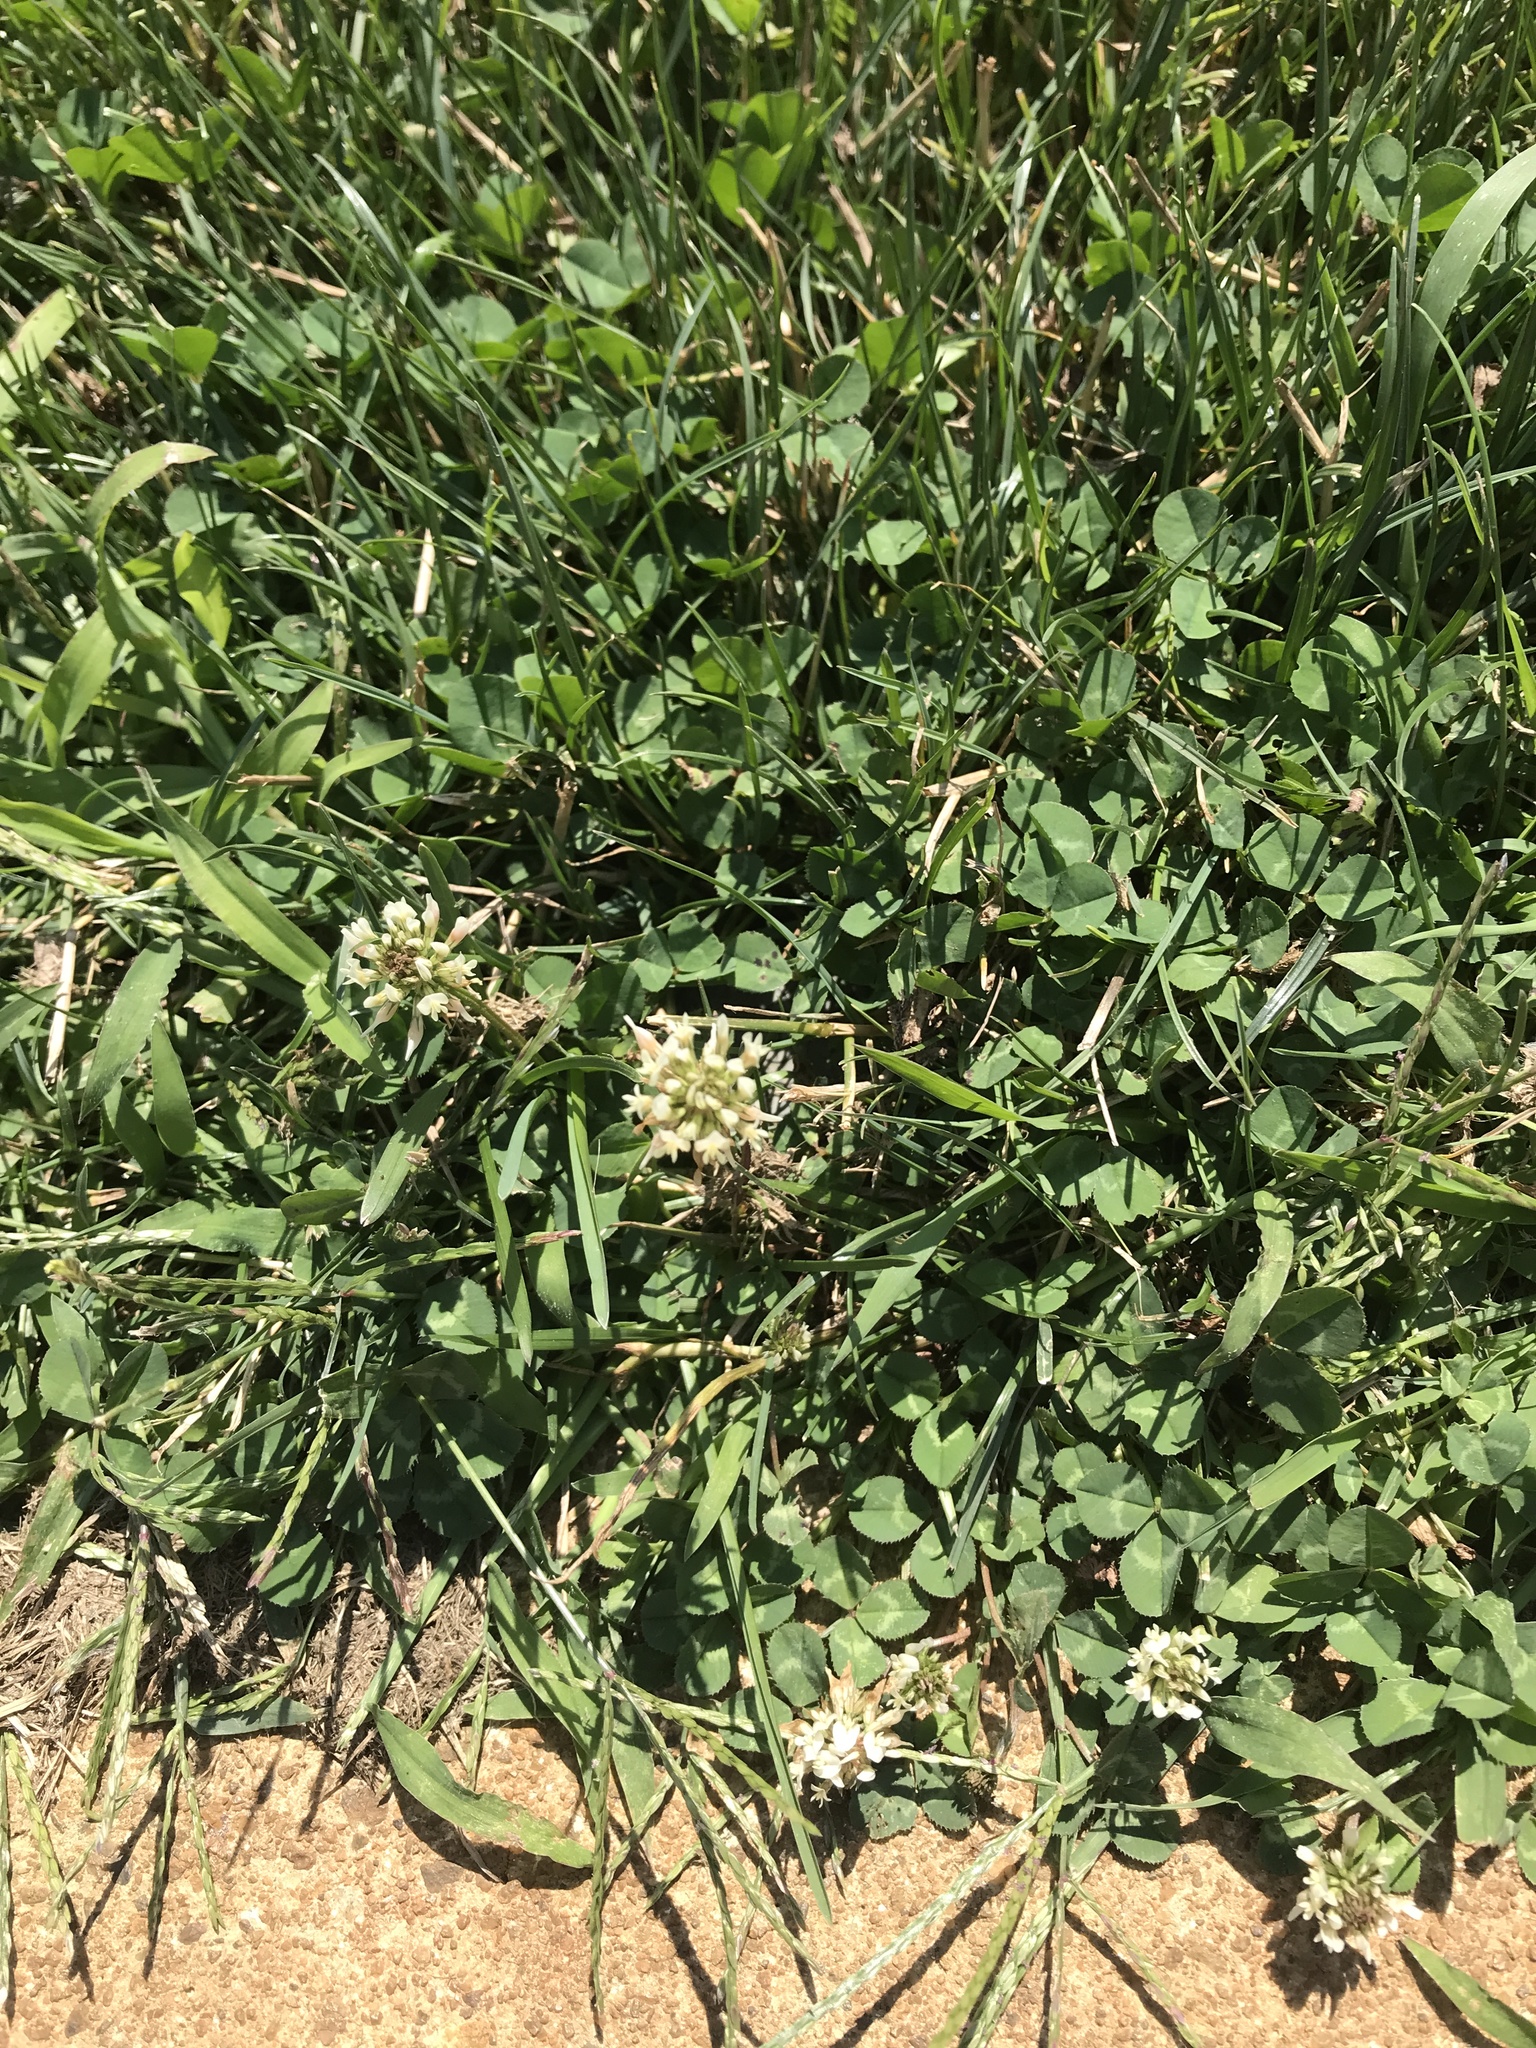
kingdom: Plantae
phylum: Tracheophyta
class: Magnoliopsida
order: Fabales
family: Fabaceae
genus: Trifolium
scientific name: Trifolium repens
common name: White clover
